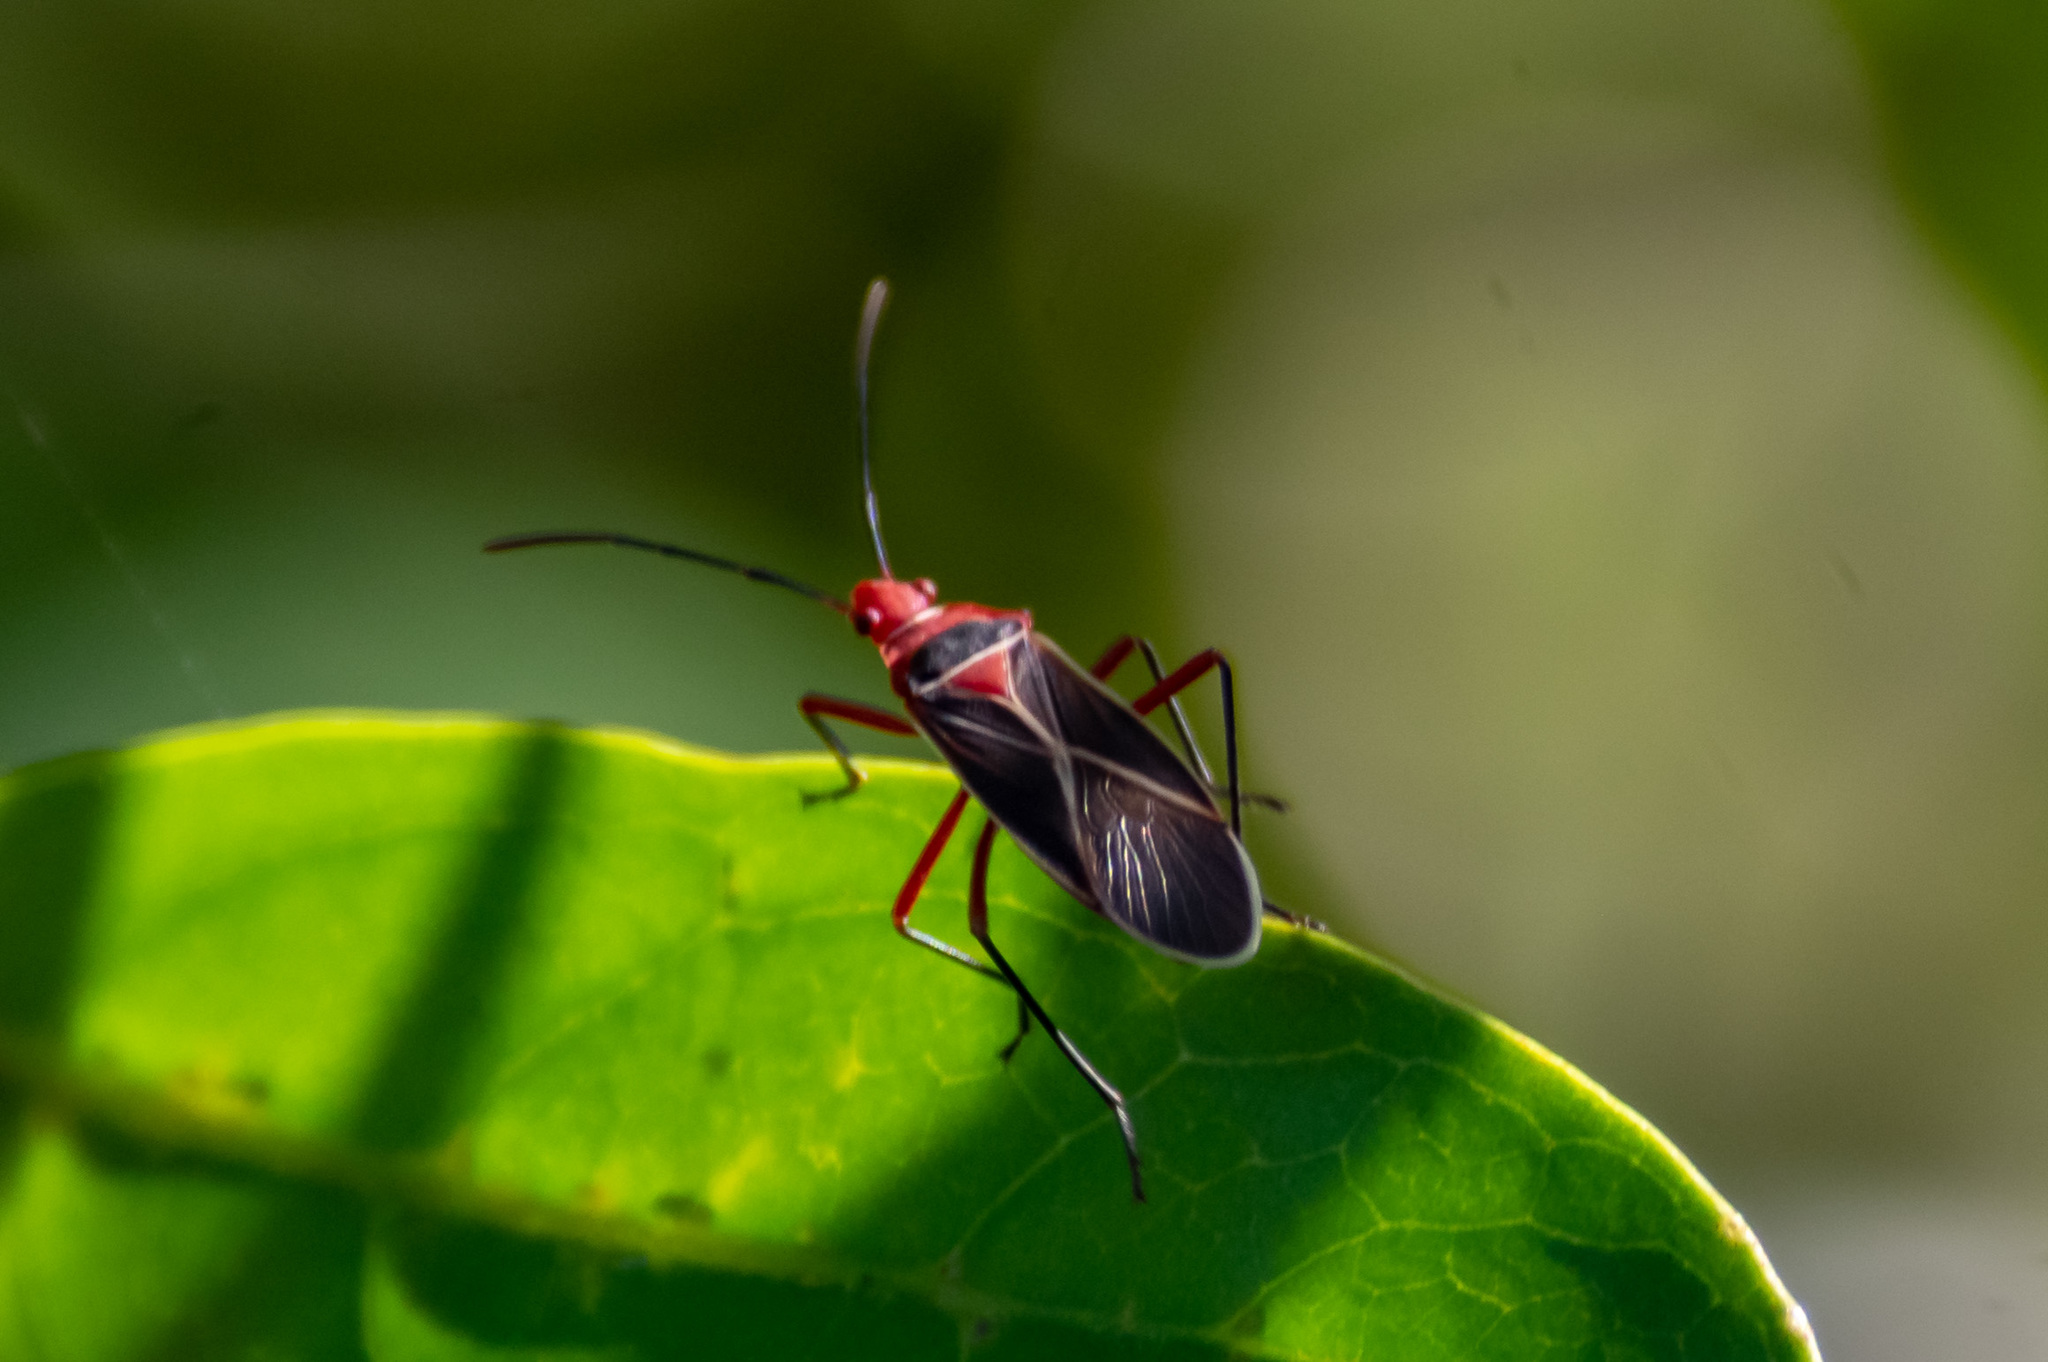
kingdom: Animalia
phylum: Arthropoda
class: Insecta
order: Hemiptera
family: Pyrrhocoridae
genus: Dysdercus
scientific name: Dysdercus suturellus
